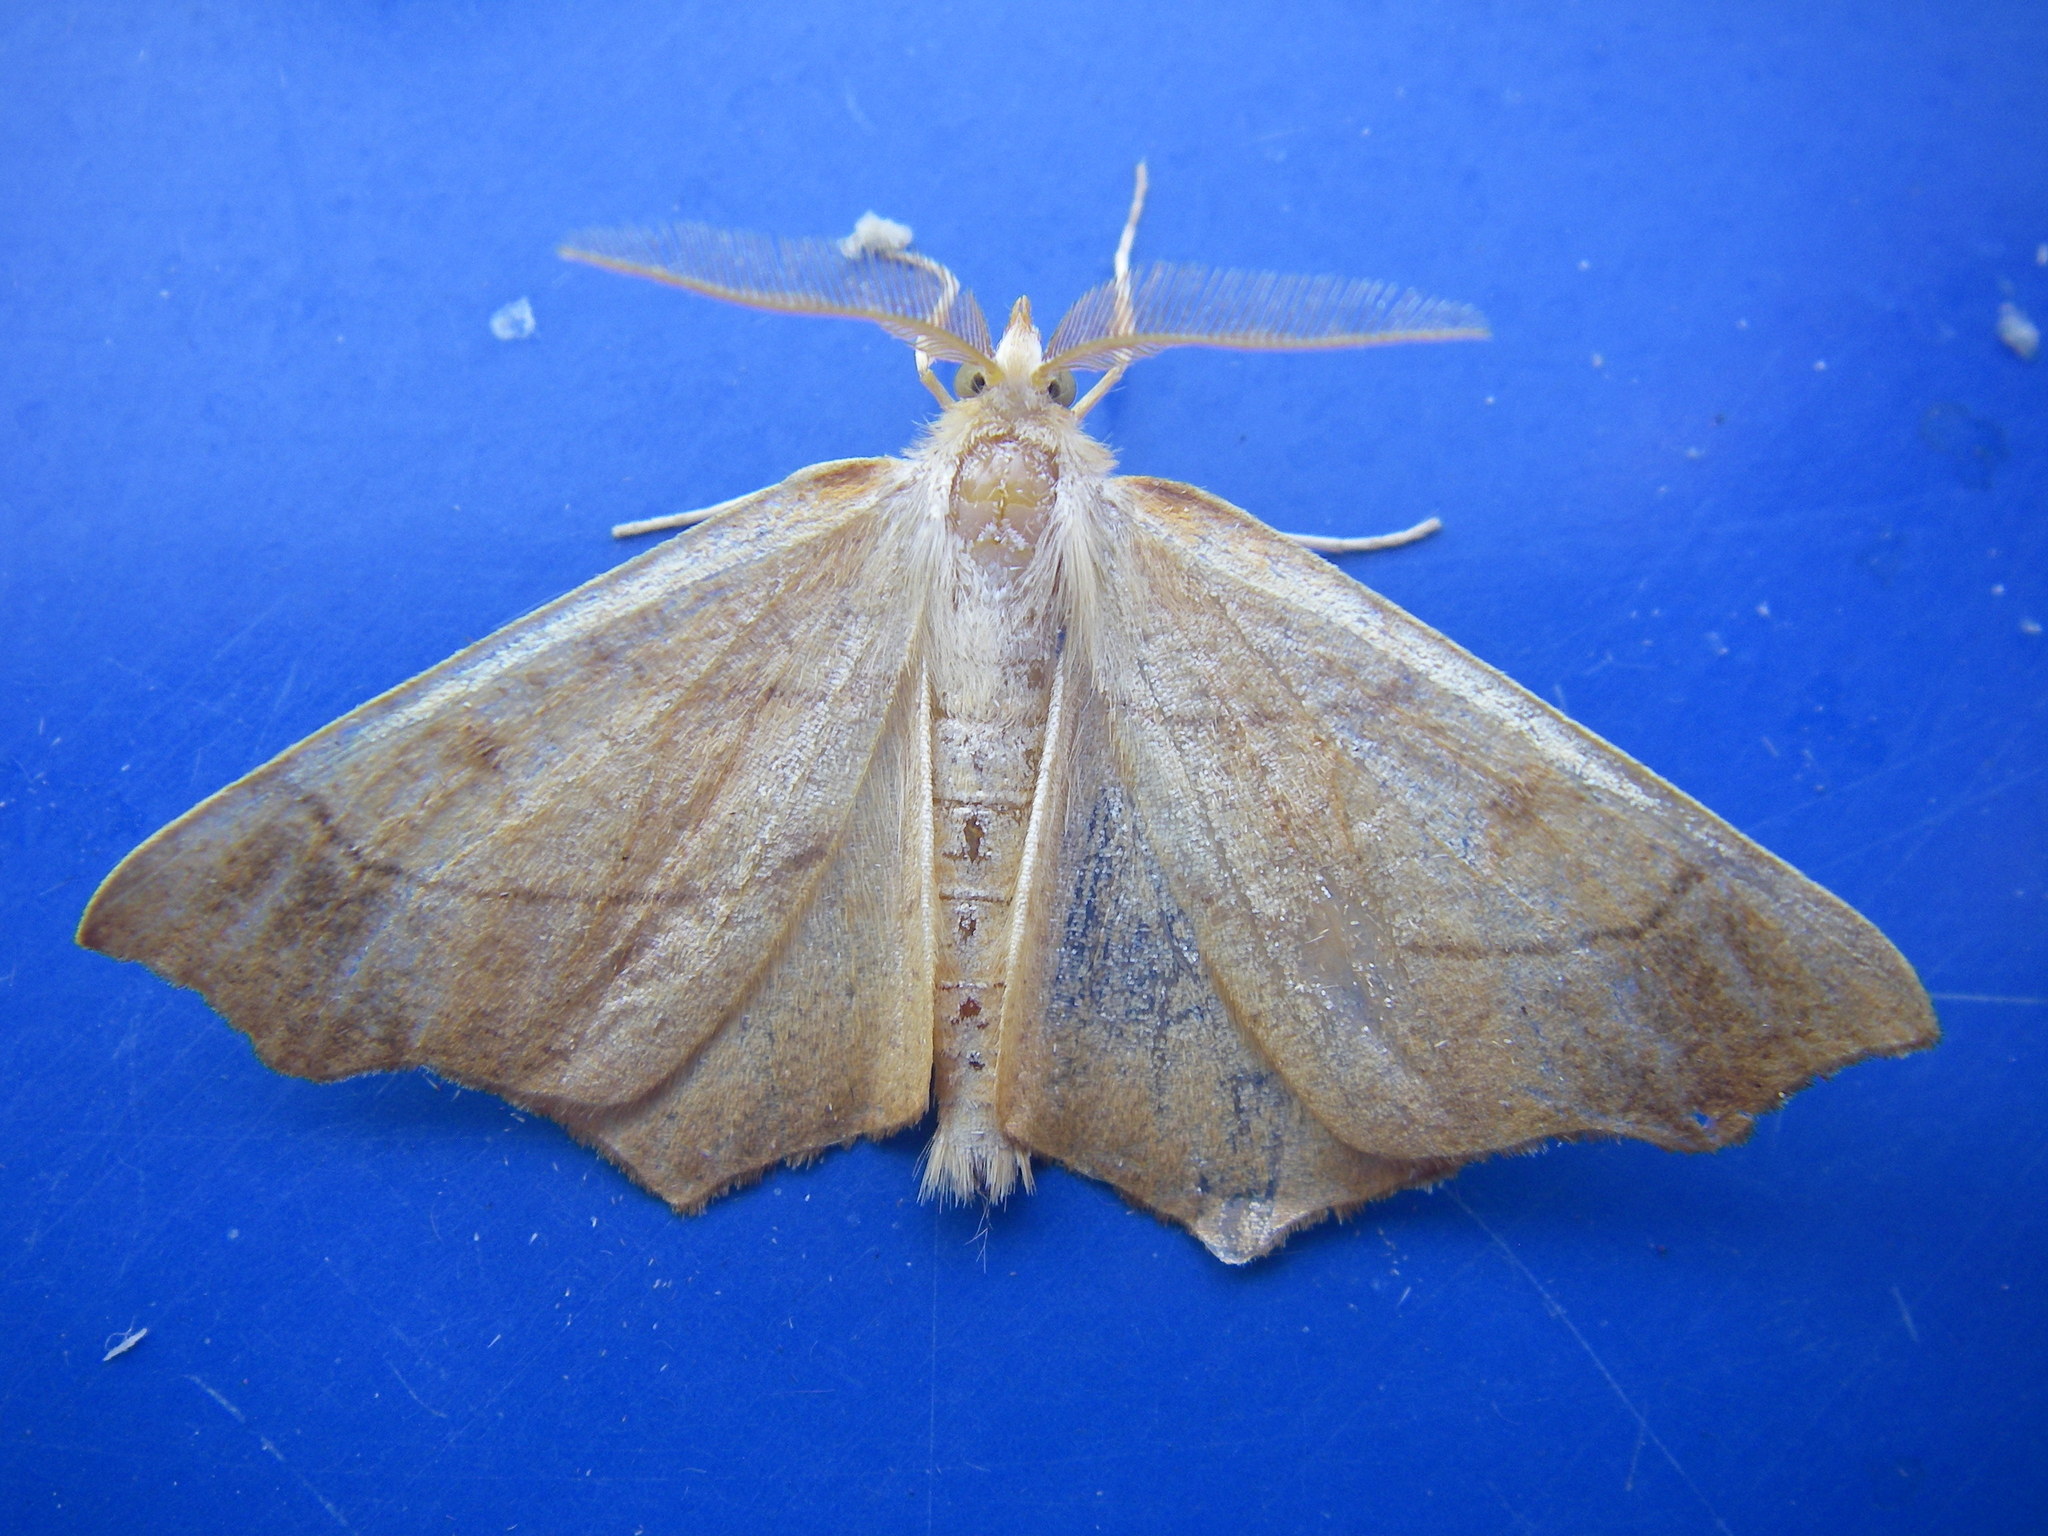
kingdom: Animalia
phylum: Arthropoda
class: Insecta
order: Lepidoptera
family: Geometridae
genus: Ennomos
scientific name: Ennomos quercinaria
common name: August thorn
